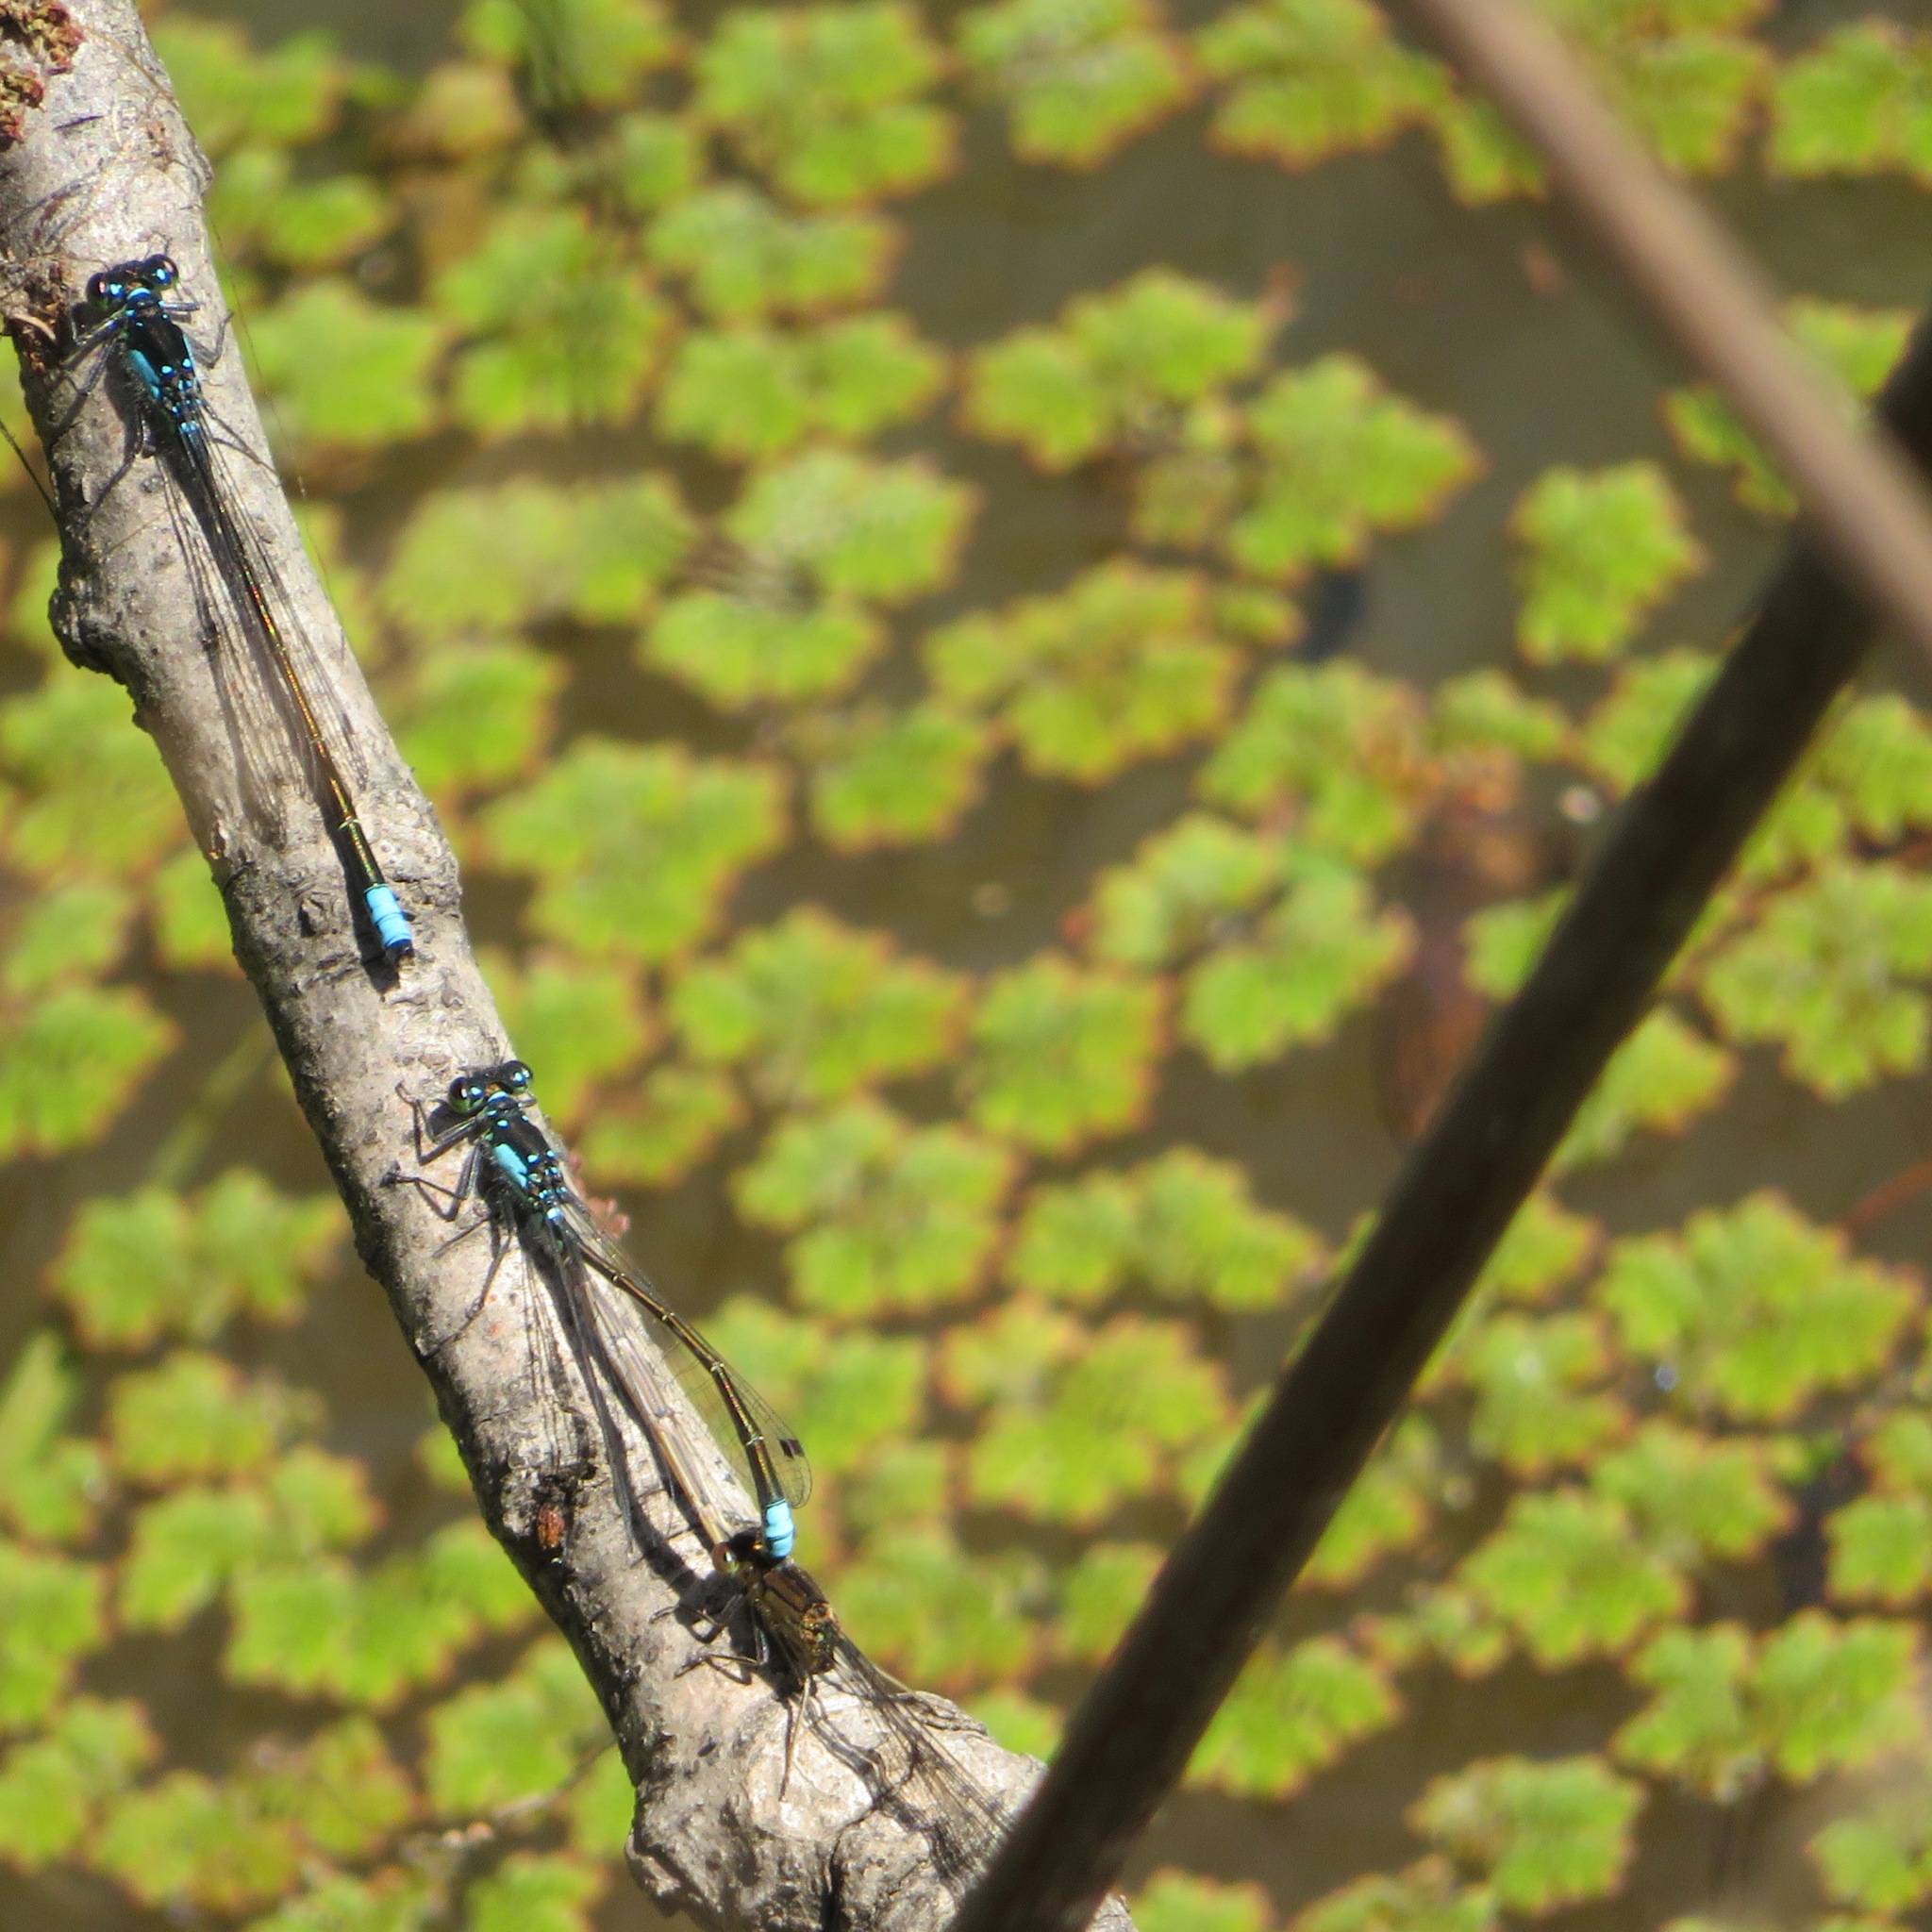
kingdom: Animalia
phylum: Arthropoda
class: Insecta
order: Odonata
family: Coenagrionidae
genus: Ischnura
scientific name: Ischnura cervula
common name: Pacific forktail
